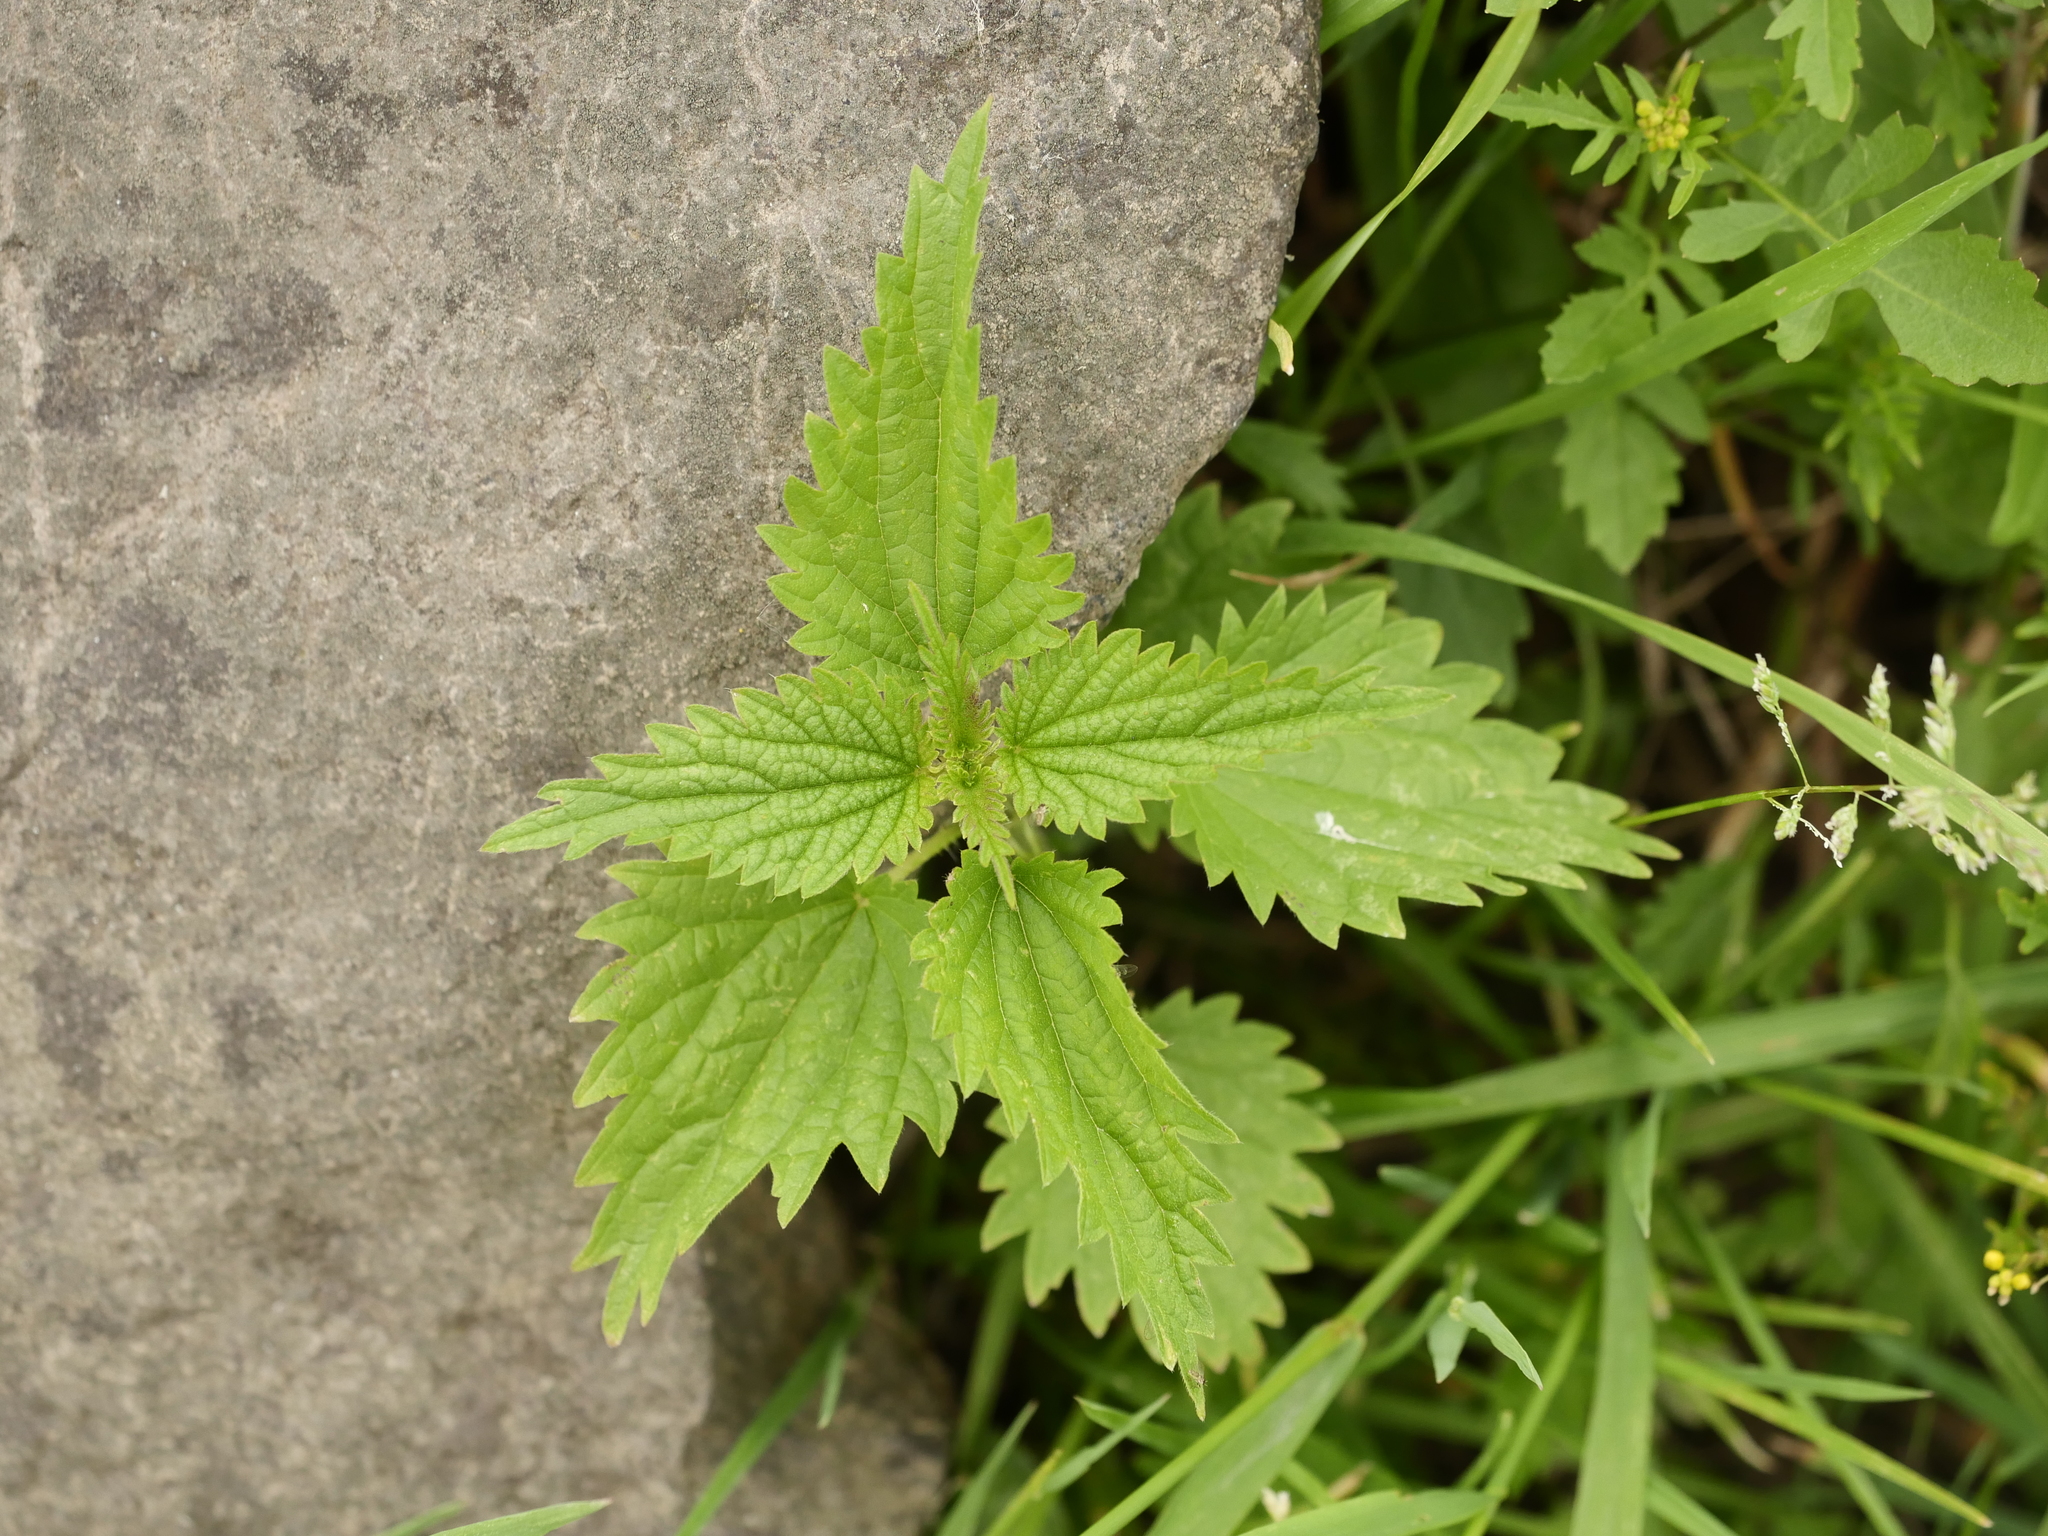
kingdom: Plantae
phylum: Tracheophyta
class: Magnoliopsida
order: Rosales
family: Urticaceae
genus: Urtica
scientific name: Urtica dioica
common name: Common nettle
